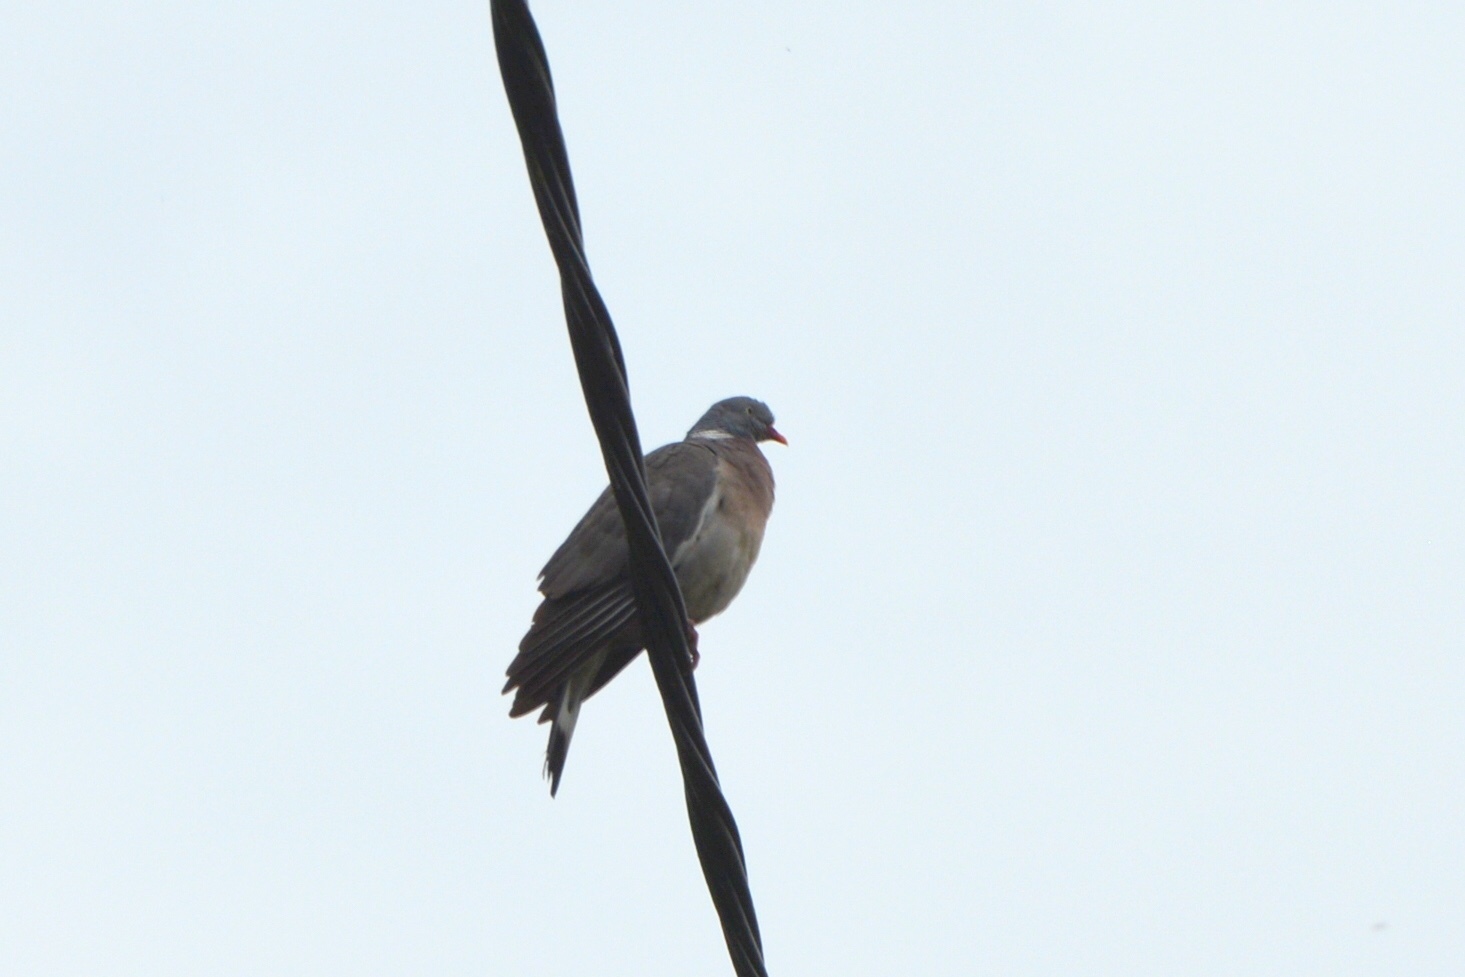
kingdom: Animalia
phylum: Chordata
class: Aves
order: Columbiformes
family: Columbidae
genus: Columba
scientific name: Columba palumbus
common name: Common wood pigeon
